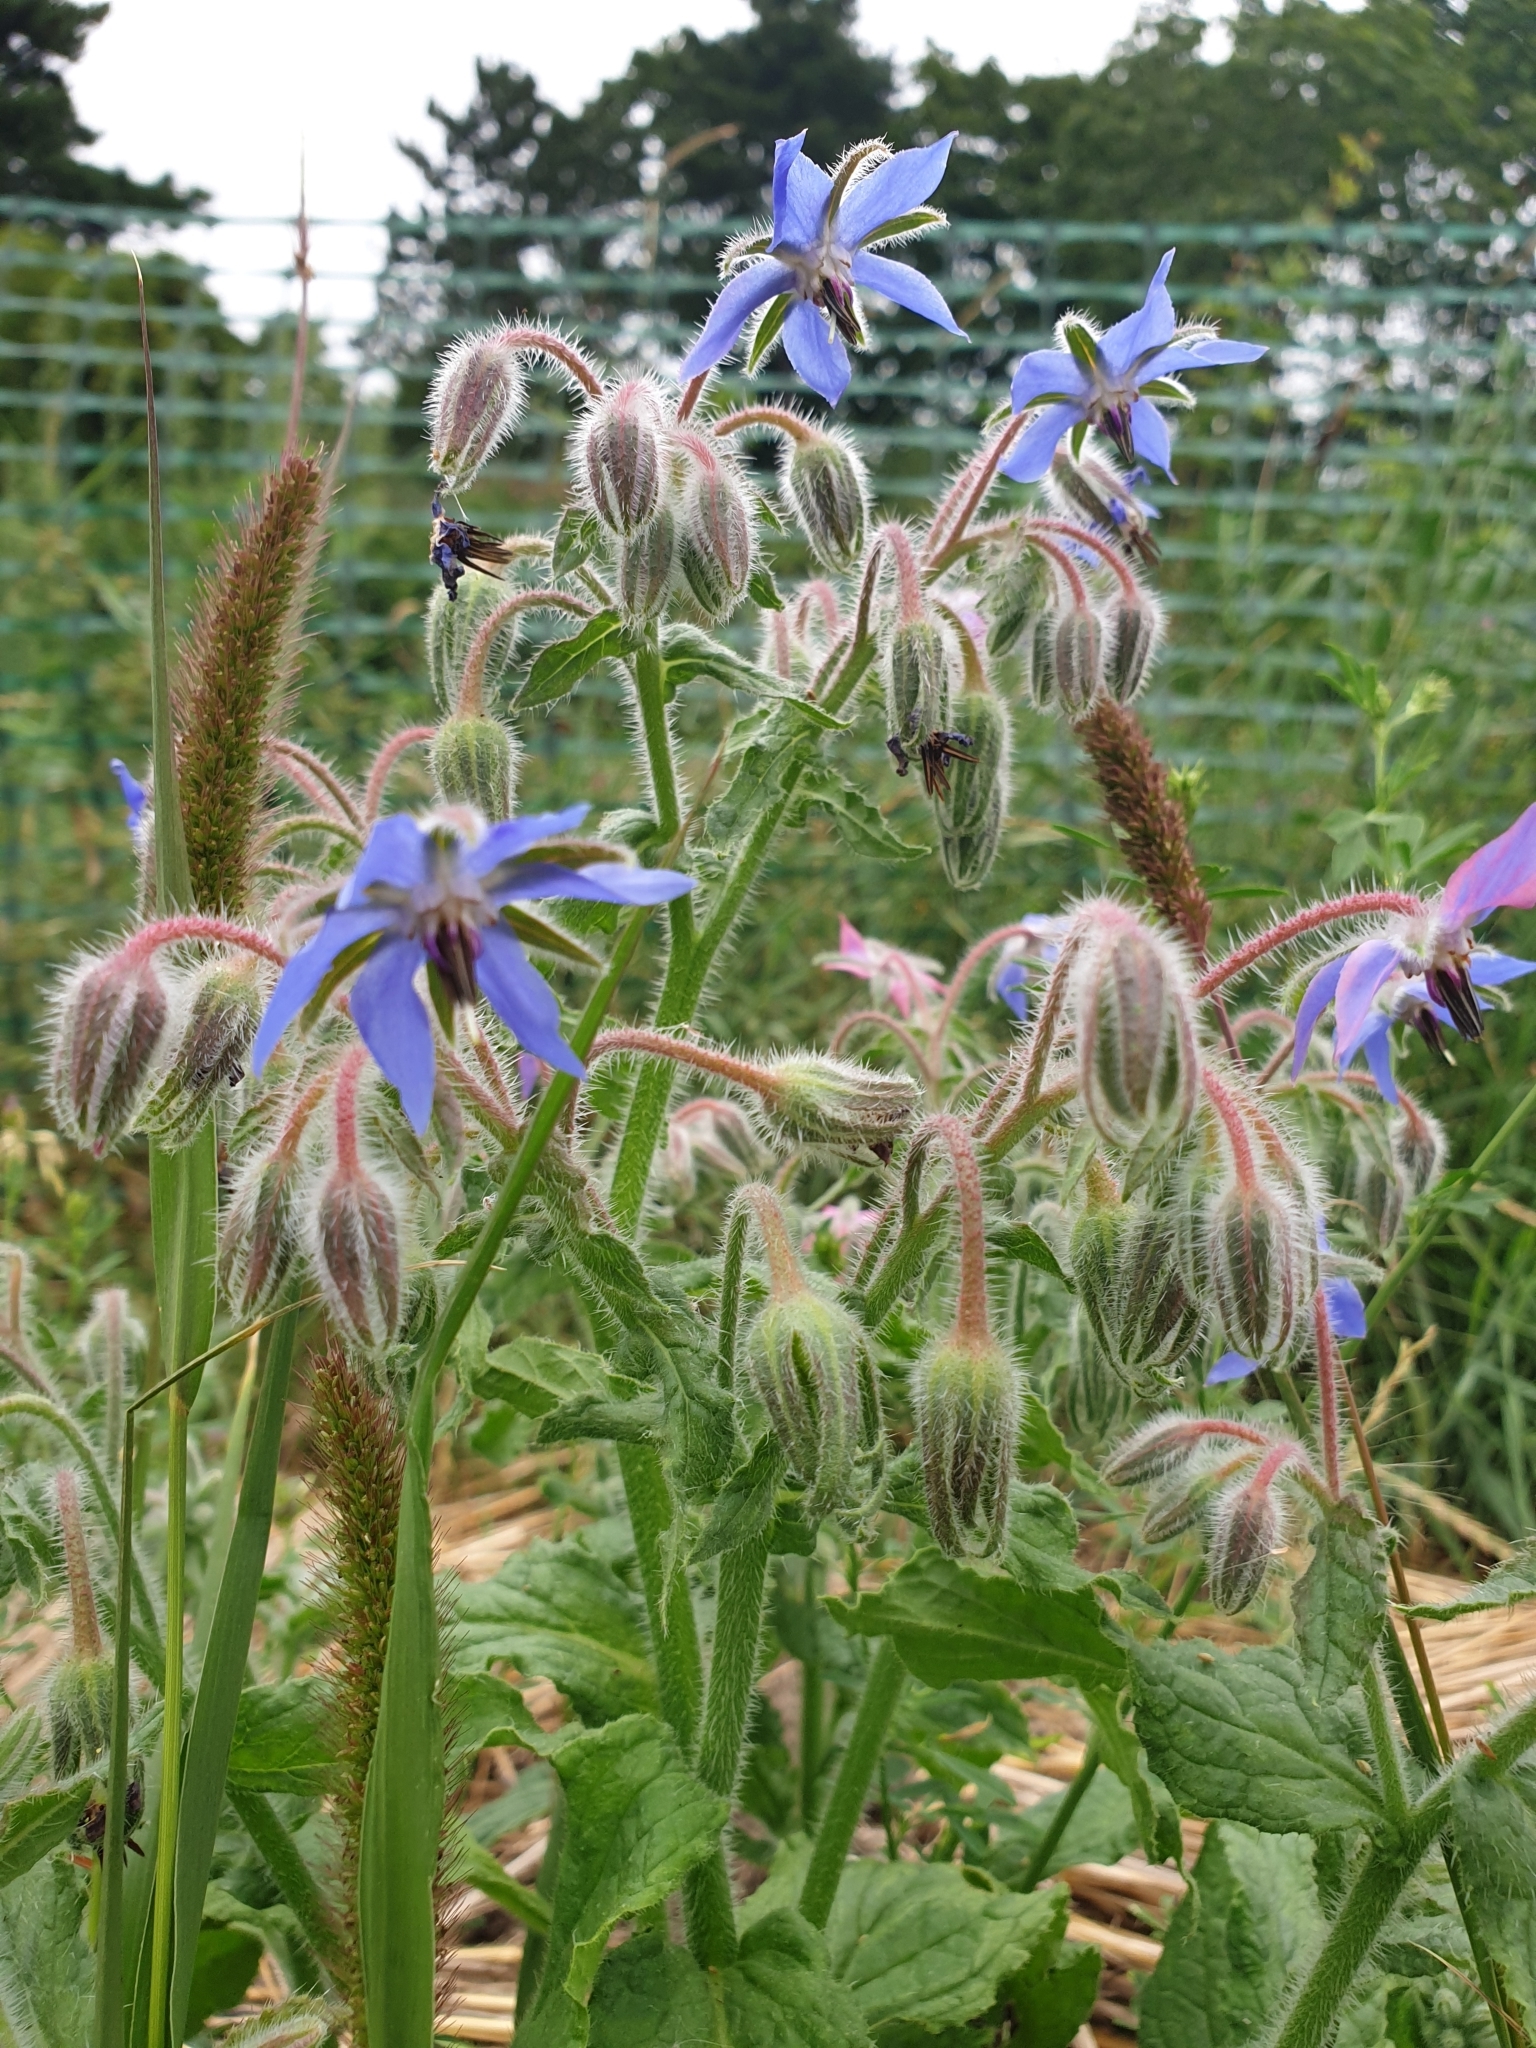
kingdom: Plantae
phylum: Tracheophyta
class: Magnoliopsida
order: Boraginales
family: Boraginaceae
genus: Borago
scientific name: Borago officinalis
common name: Borage
